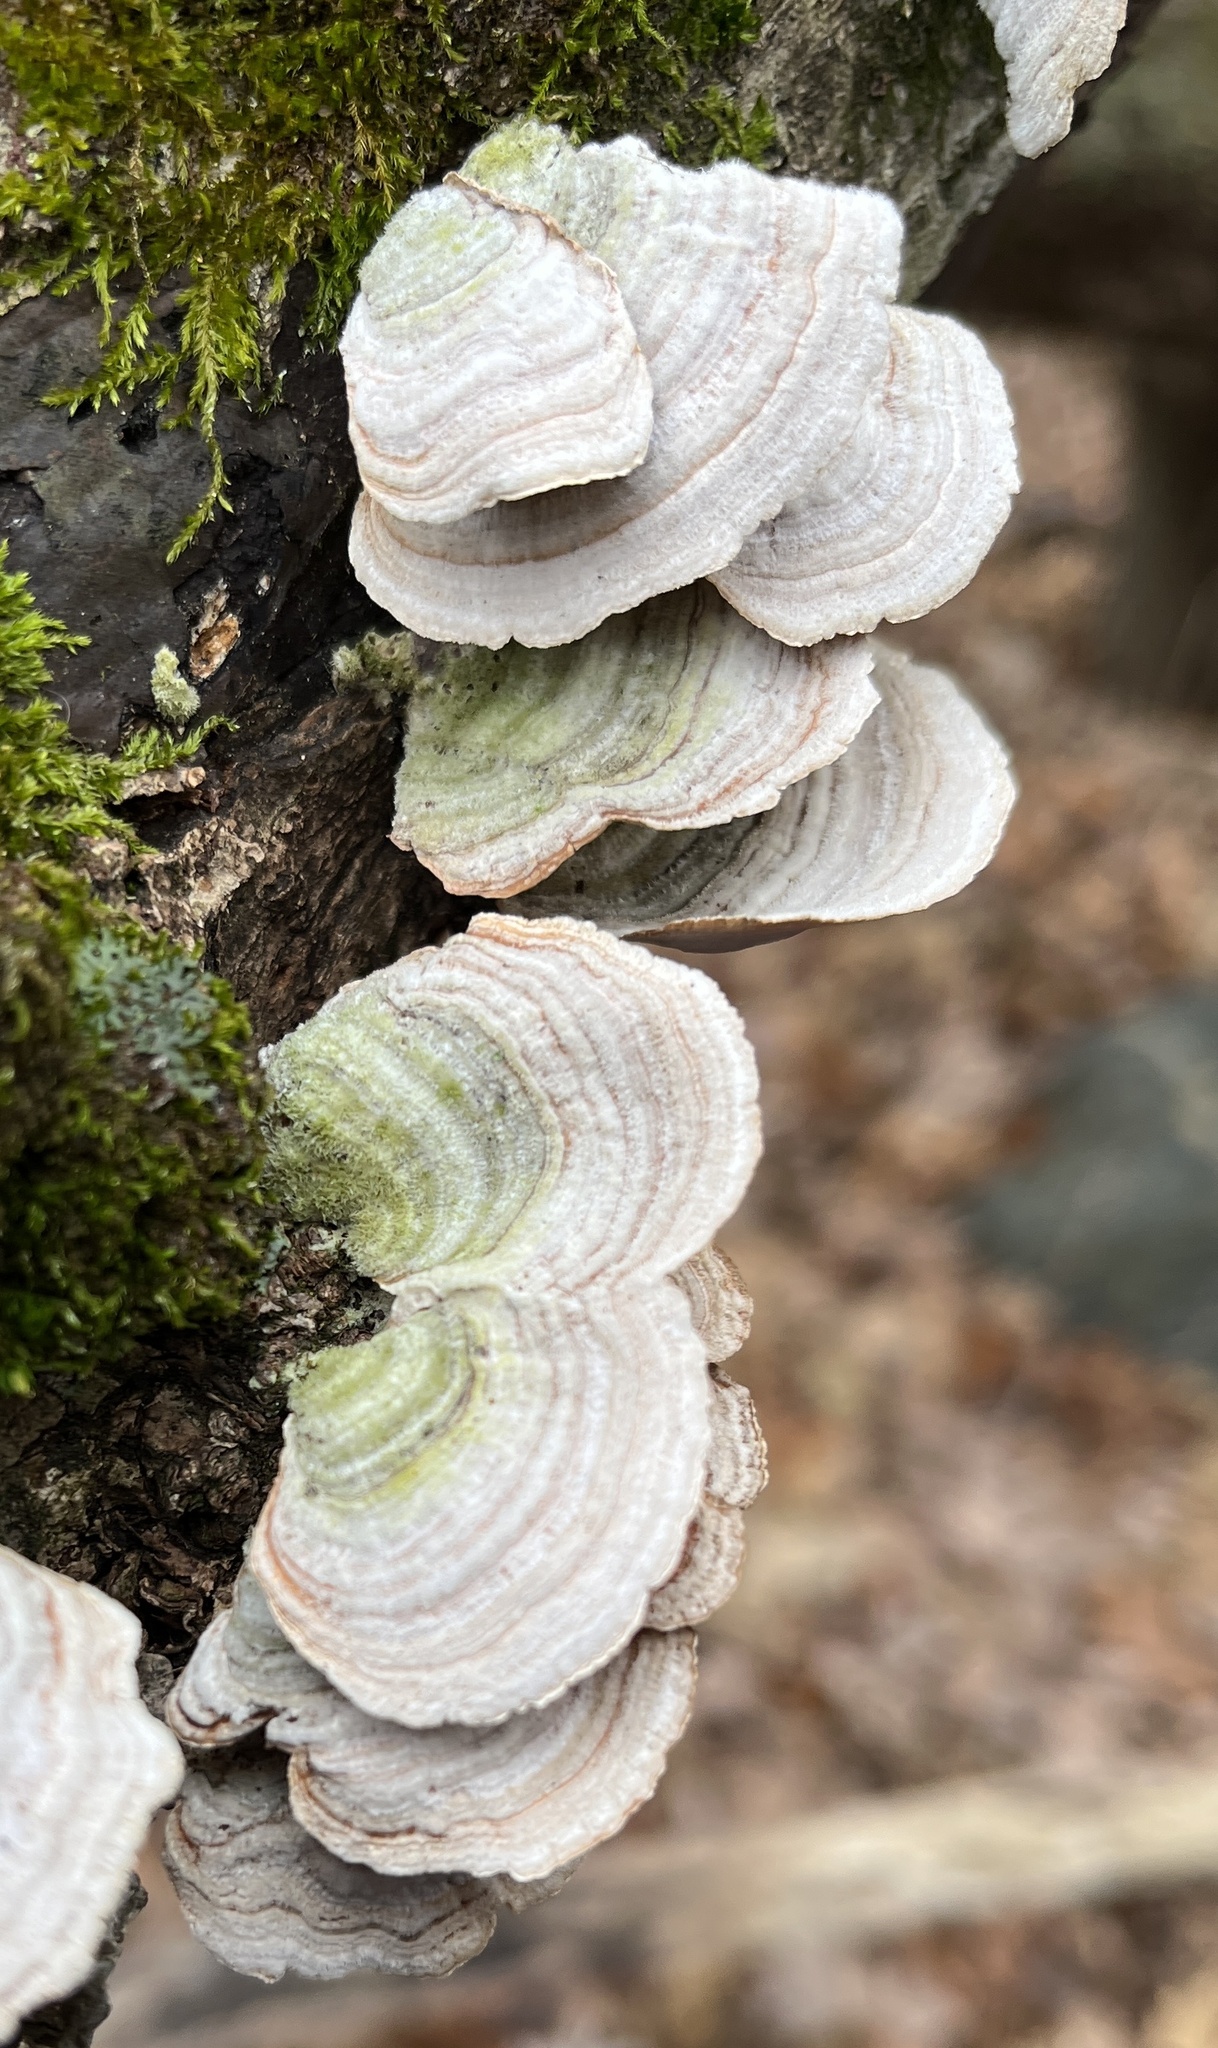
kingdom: Fungi
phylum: Basidiomycota
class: Agaricomycetes
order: Russulales
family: Stereaceae
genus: Stereum
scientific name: Stereum ostrea
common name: False turkeytail
